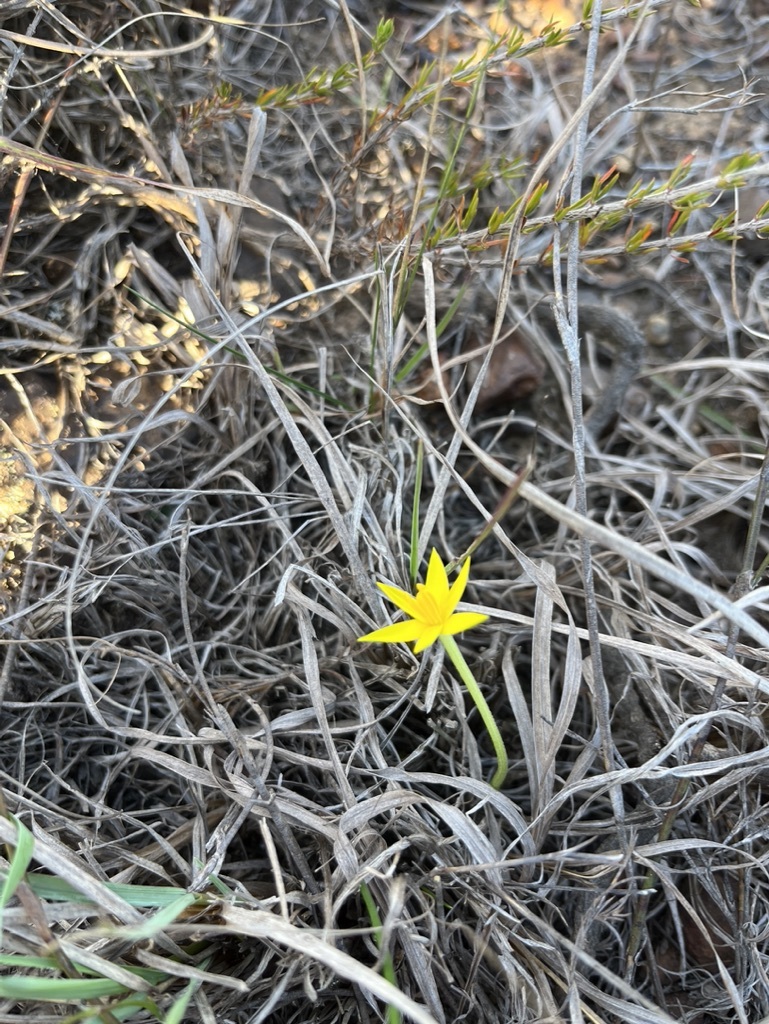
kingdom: Plantae
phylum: Tracheophyta
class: Liliopsida
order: Asparagales
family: Hypoxidaceae
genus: Empodium
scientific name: Empodium plicatum
